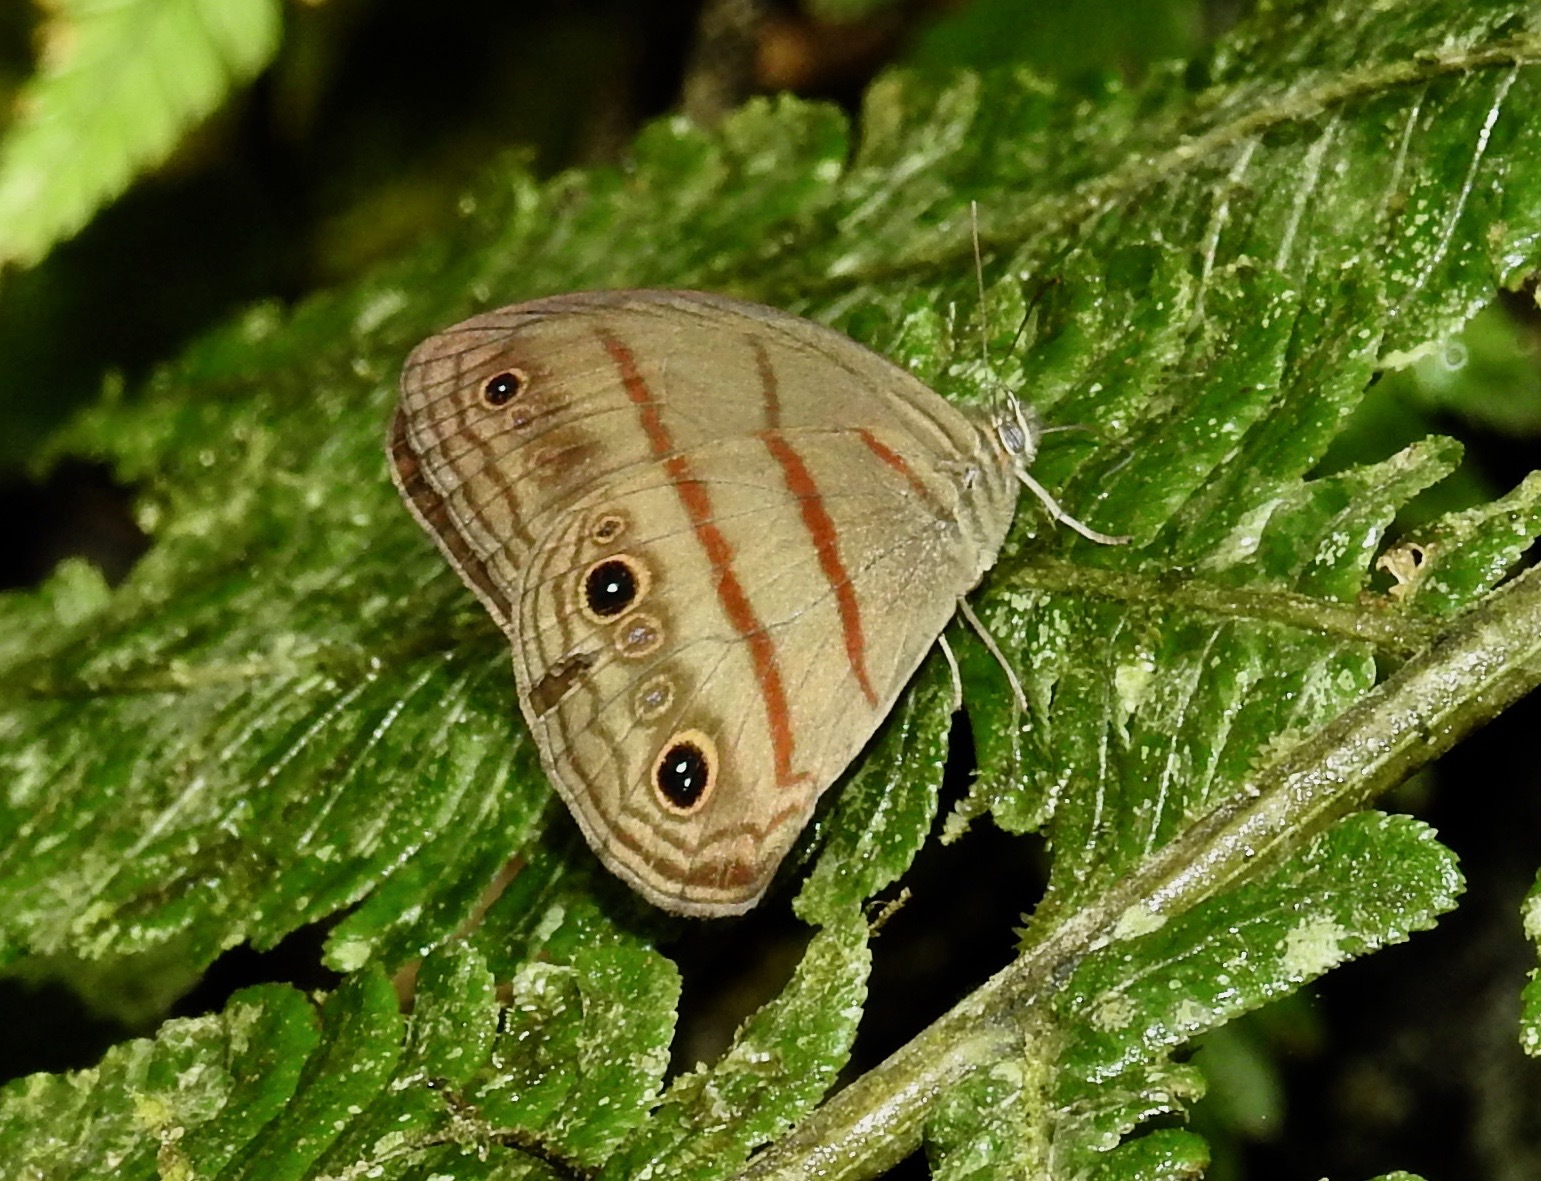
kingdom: Animalia
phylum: Arthropoda
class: Insecta
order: Lepidoptera
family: Nymphalidae
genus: Megeuptychia
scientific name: Megeuptychia antonoe
